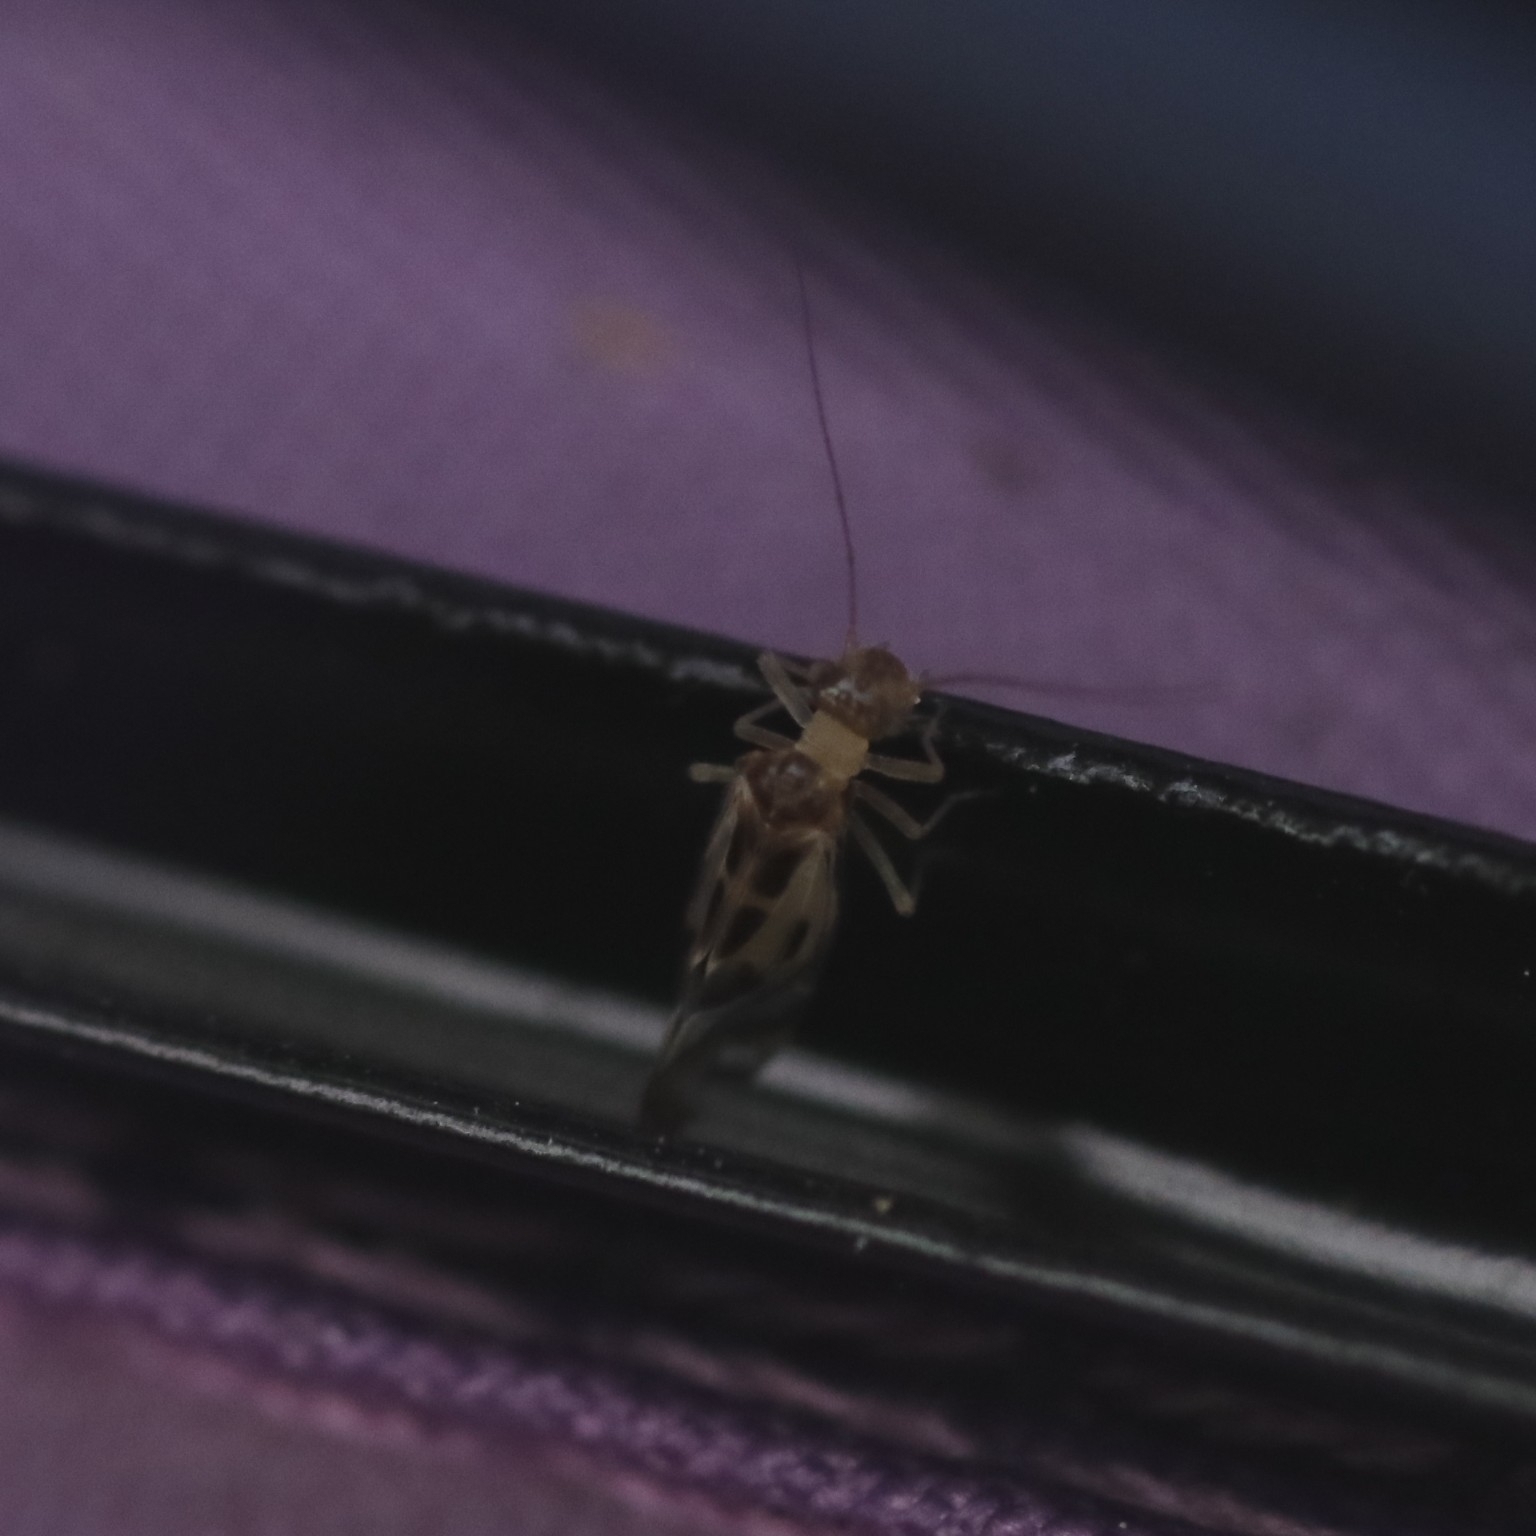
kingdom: Animalia
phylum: Arthropoda
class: Insecta
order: Psocodea
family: Stenopsocidae
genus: Graphopsocus
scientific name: Graphopsocus cruciatus
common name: Lizard bark louse
